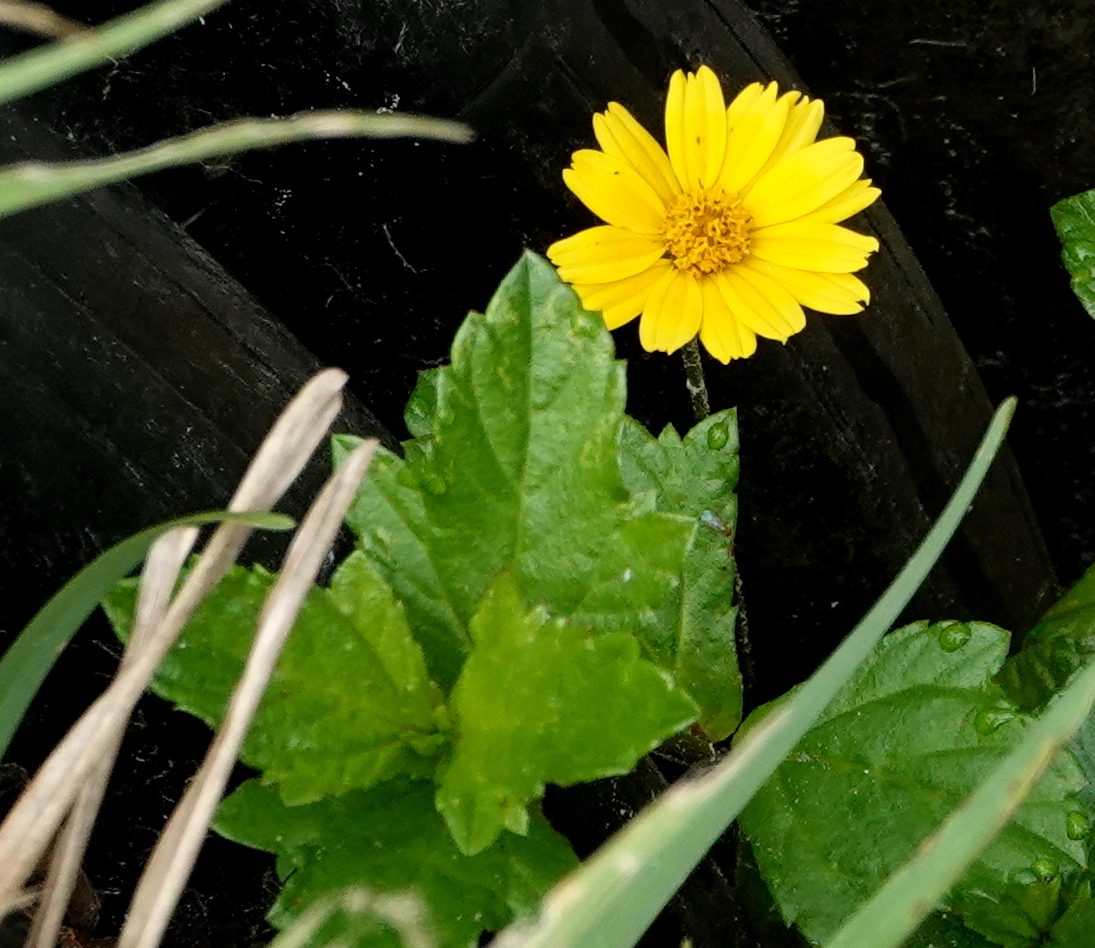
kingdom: Plantae
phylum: Tracheophyta
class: Magnoliopsida
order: Asterales
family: Asteraceae
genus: Sphagneticola
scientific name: Sphagneticola trilobata
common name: Bay biscayne creeping-oxeye
